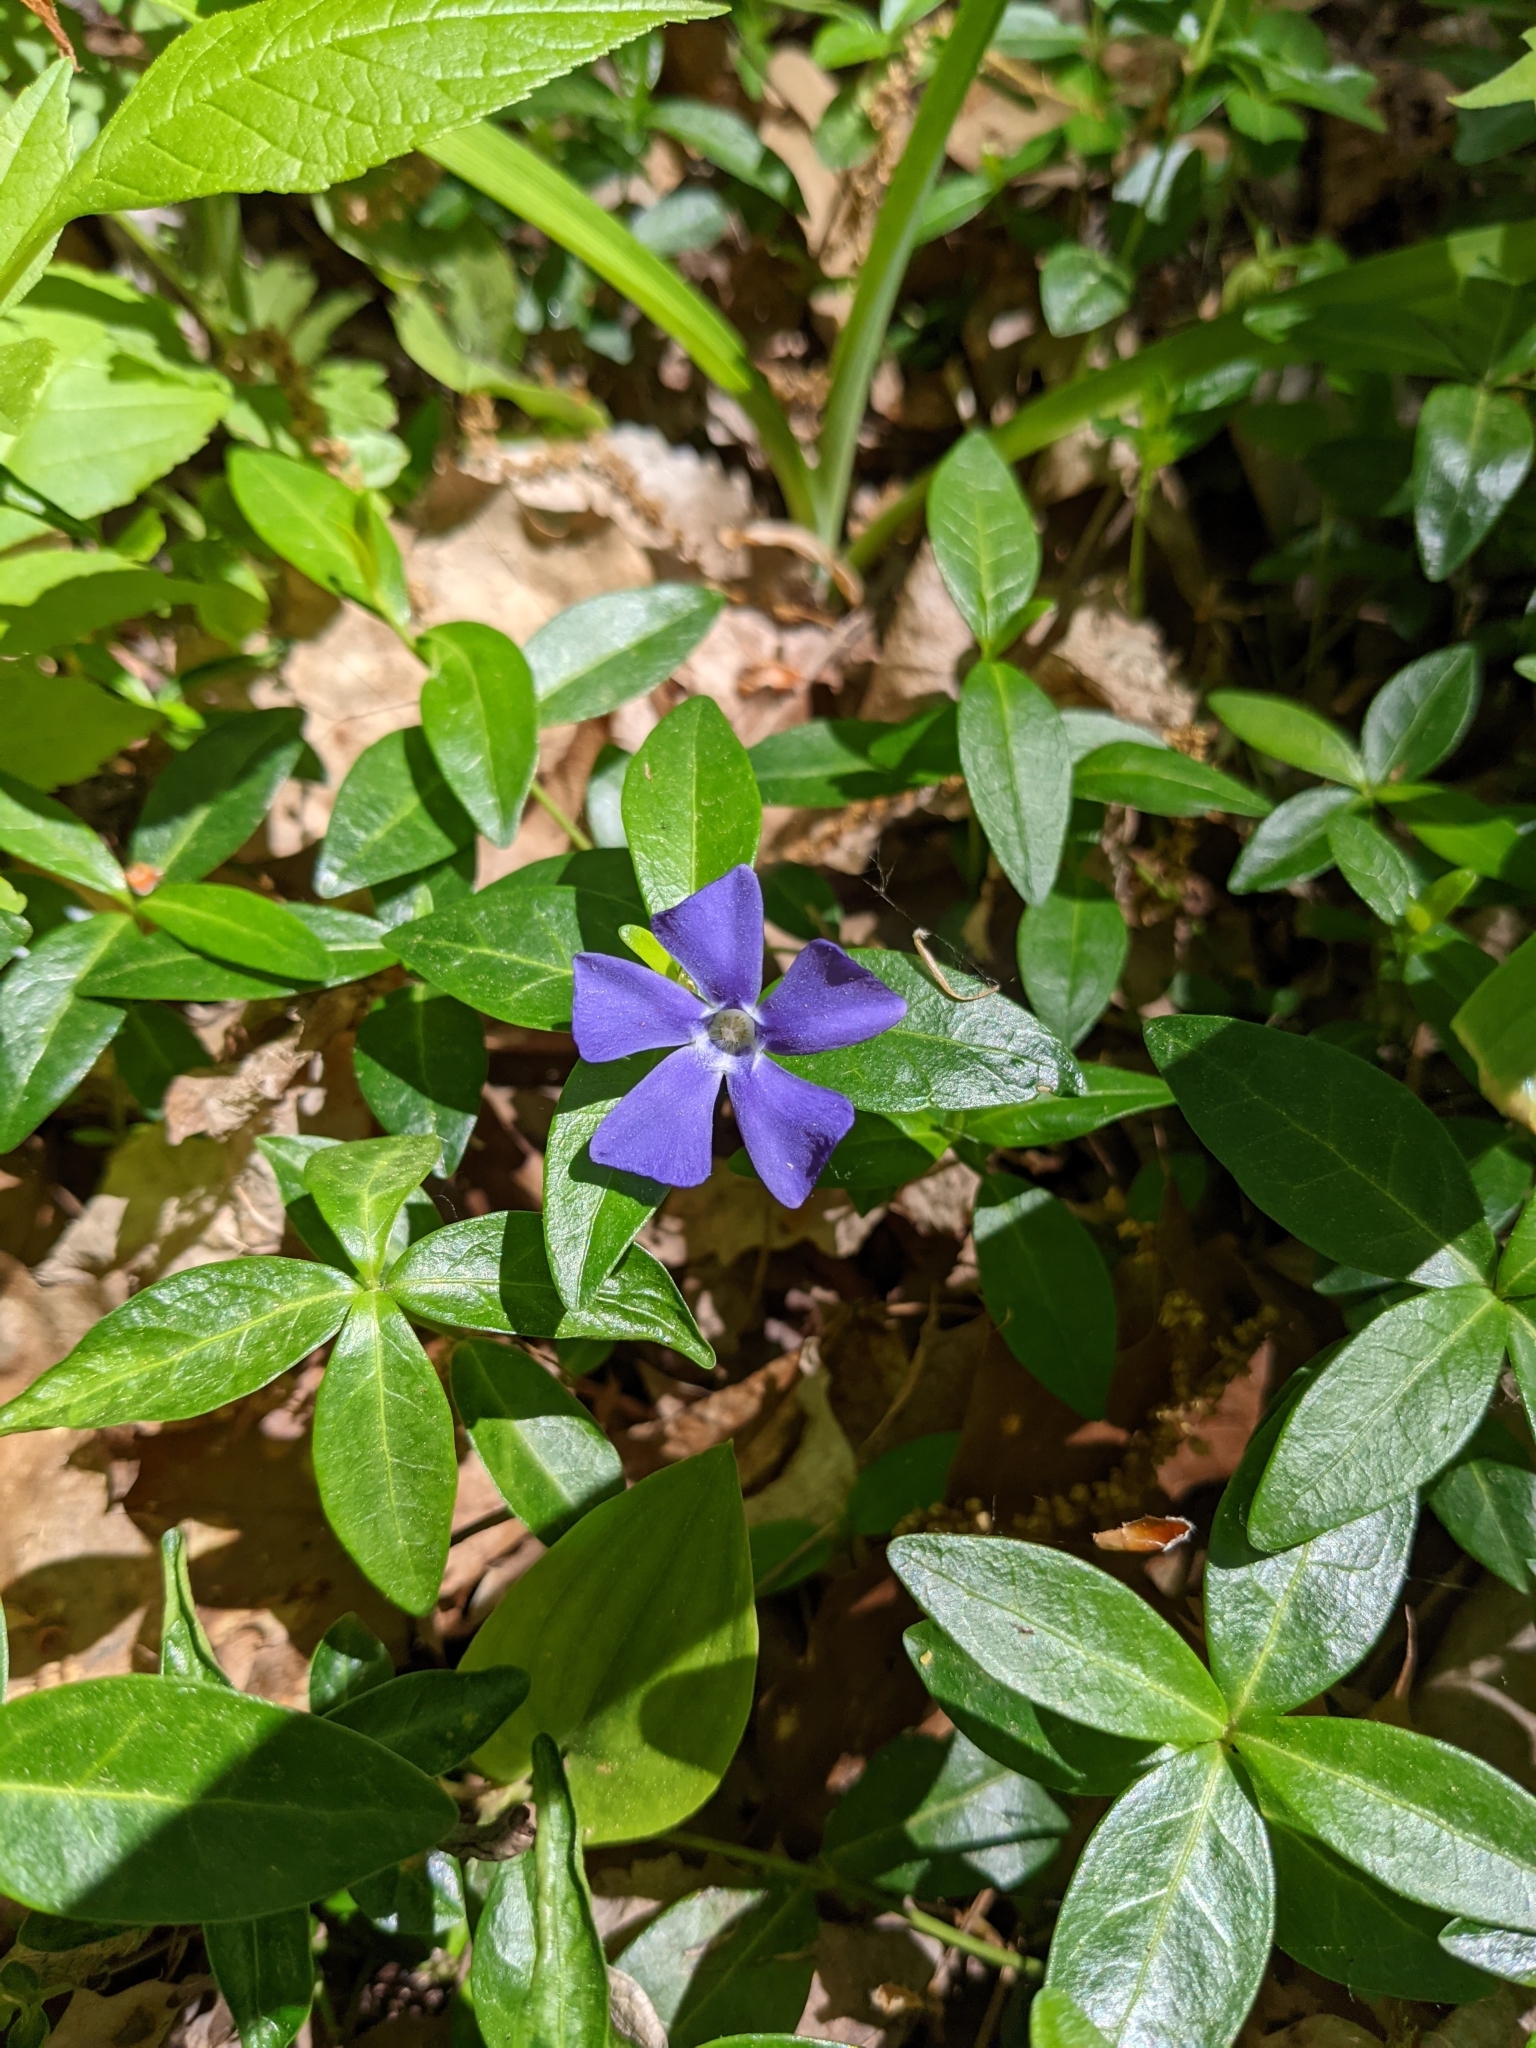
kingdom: Plantae
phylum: Tracheophyta
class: Magnoliopsida
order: Gentianales
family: Apocynaceae
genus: Vinca
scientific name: Vinca minor
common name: Lesser periwinkle
